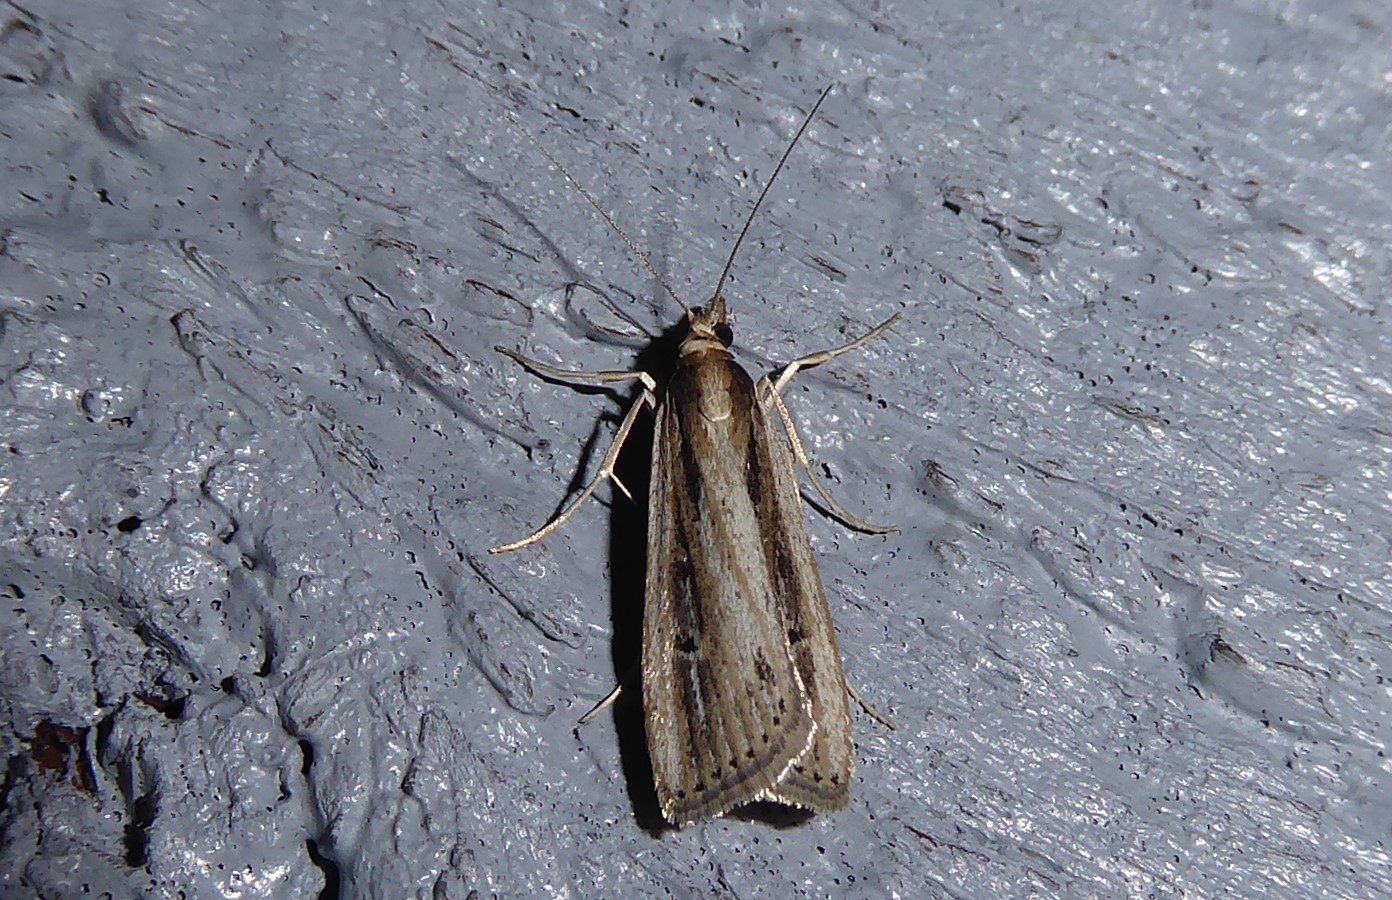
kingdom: Animalia
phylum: Arthropoda
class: Insecta
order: Lepidoptera
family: Crambidae
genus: Eudonia
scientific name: Eudonia sabulosella
